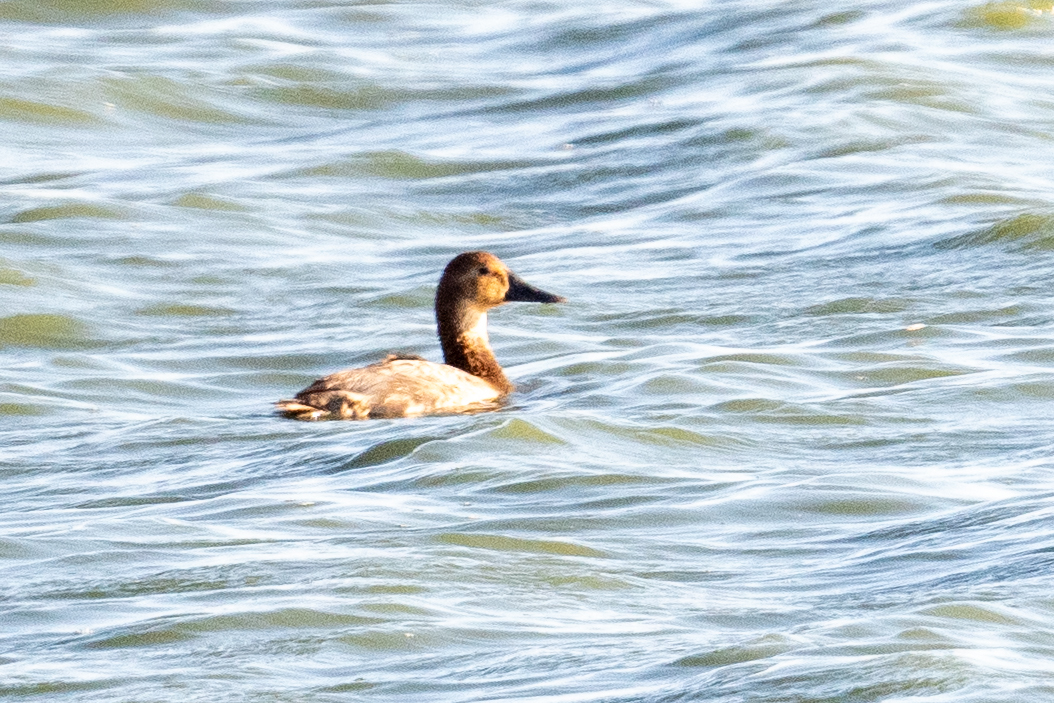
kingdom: Animalia
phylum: Chordata
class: Aves
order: Anseriformes
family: Anatidae
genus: Aythya
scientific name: Aythya valisineria
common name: Canvasback
